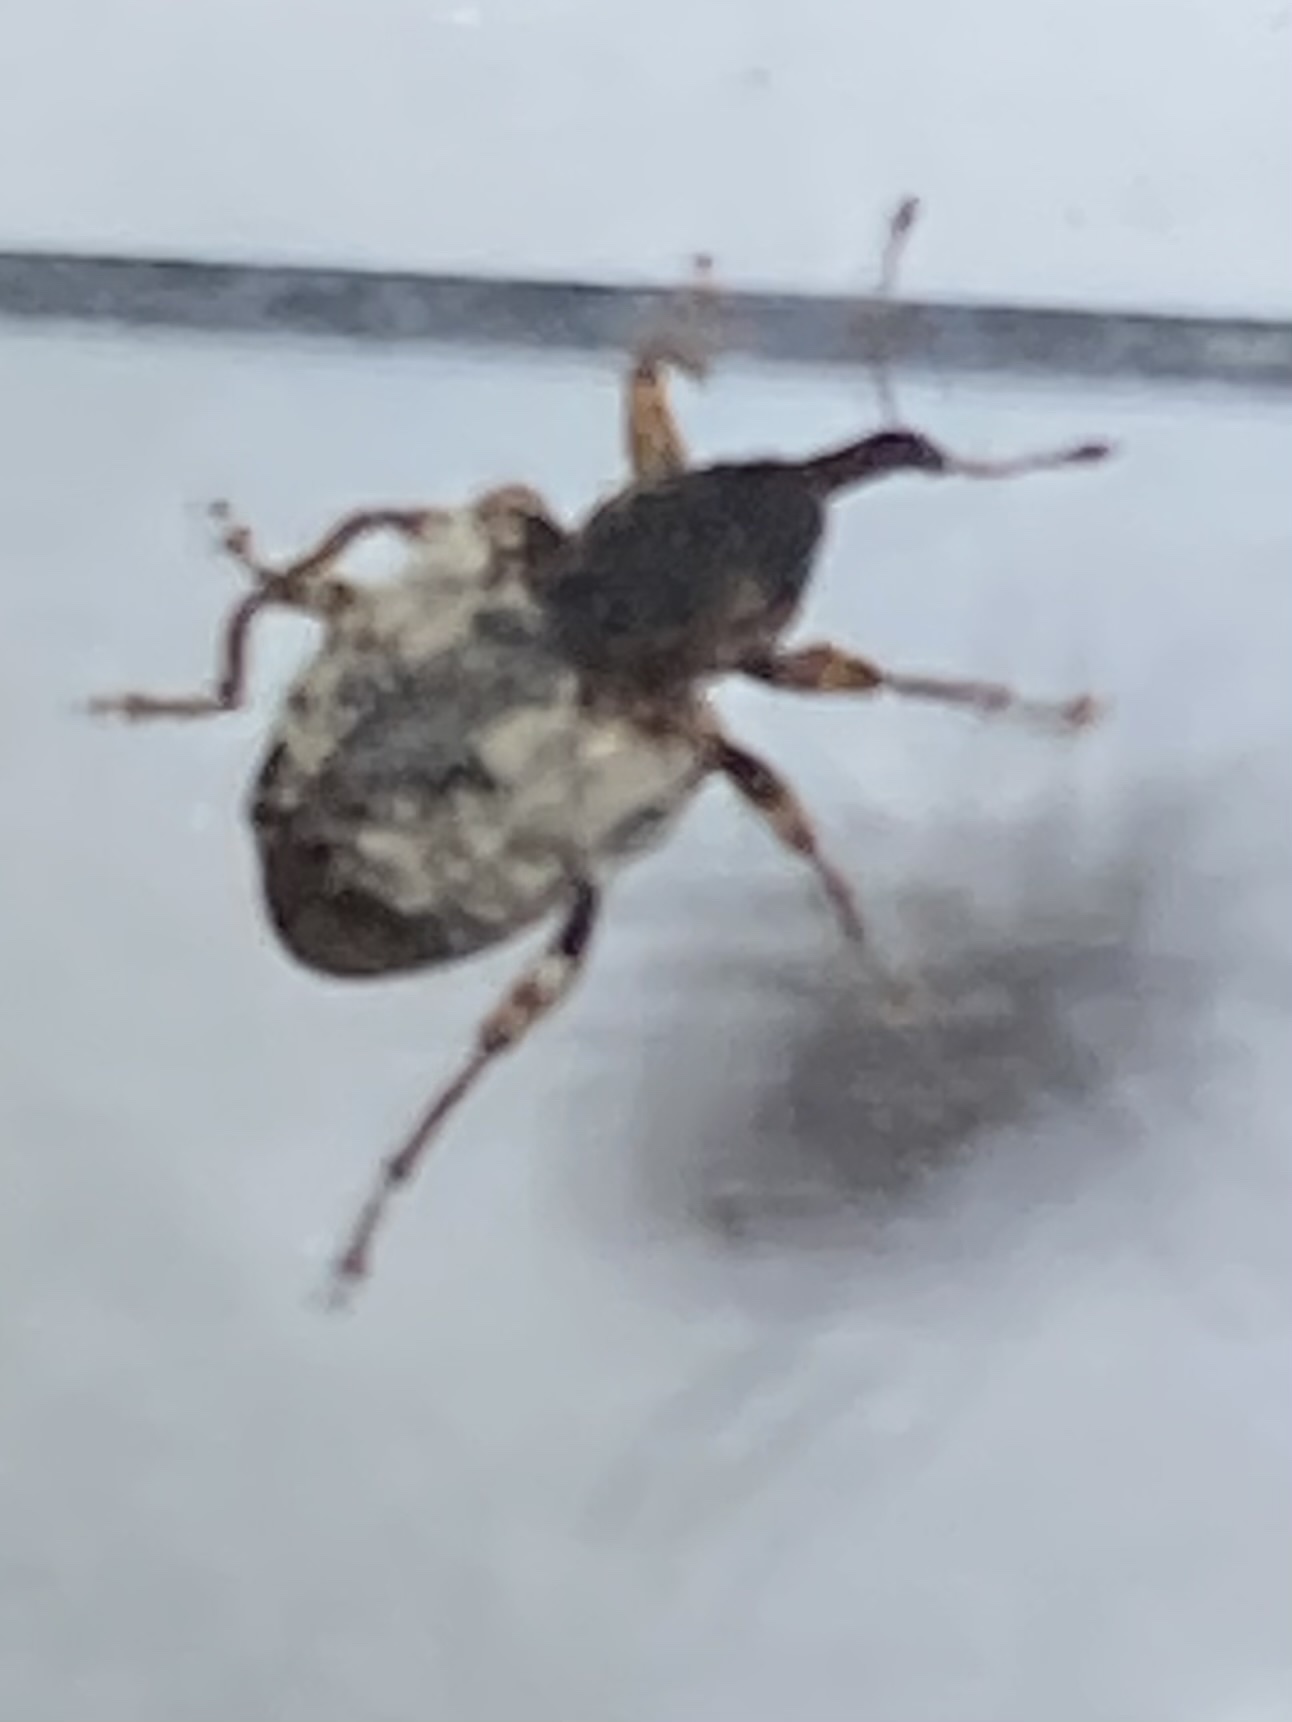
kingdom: Animalia
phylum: Arthropoda
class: Insecta
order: Coleoptera
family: Curculionidae
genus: Conotrachelus
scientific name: Conotrachelus leucophaeatus
